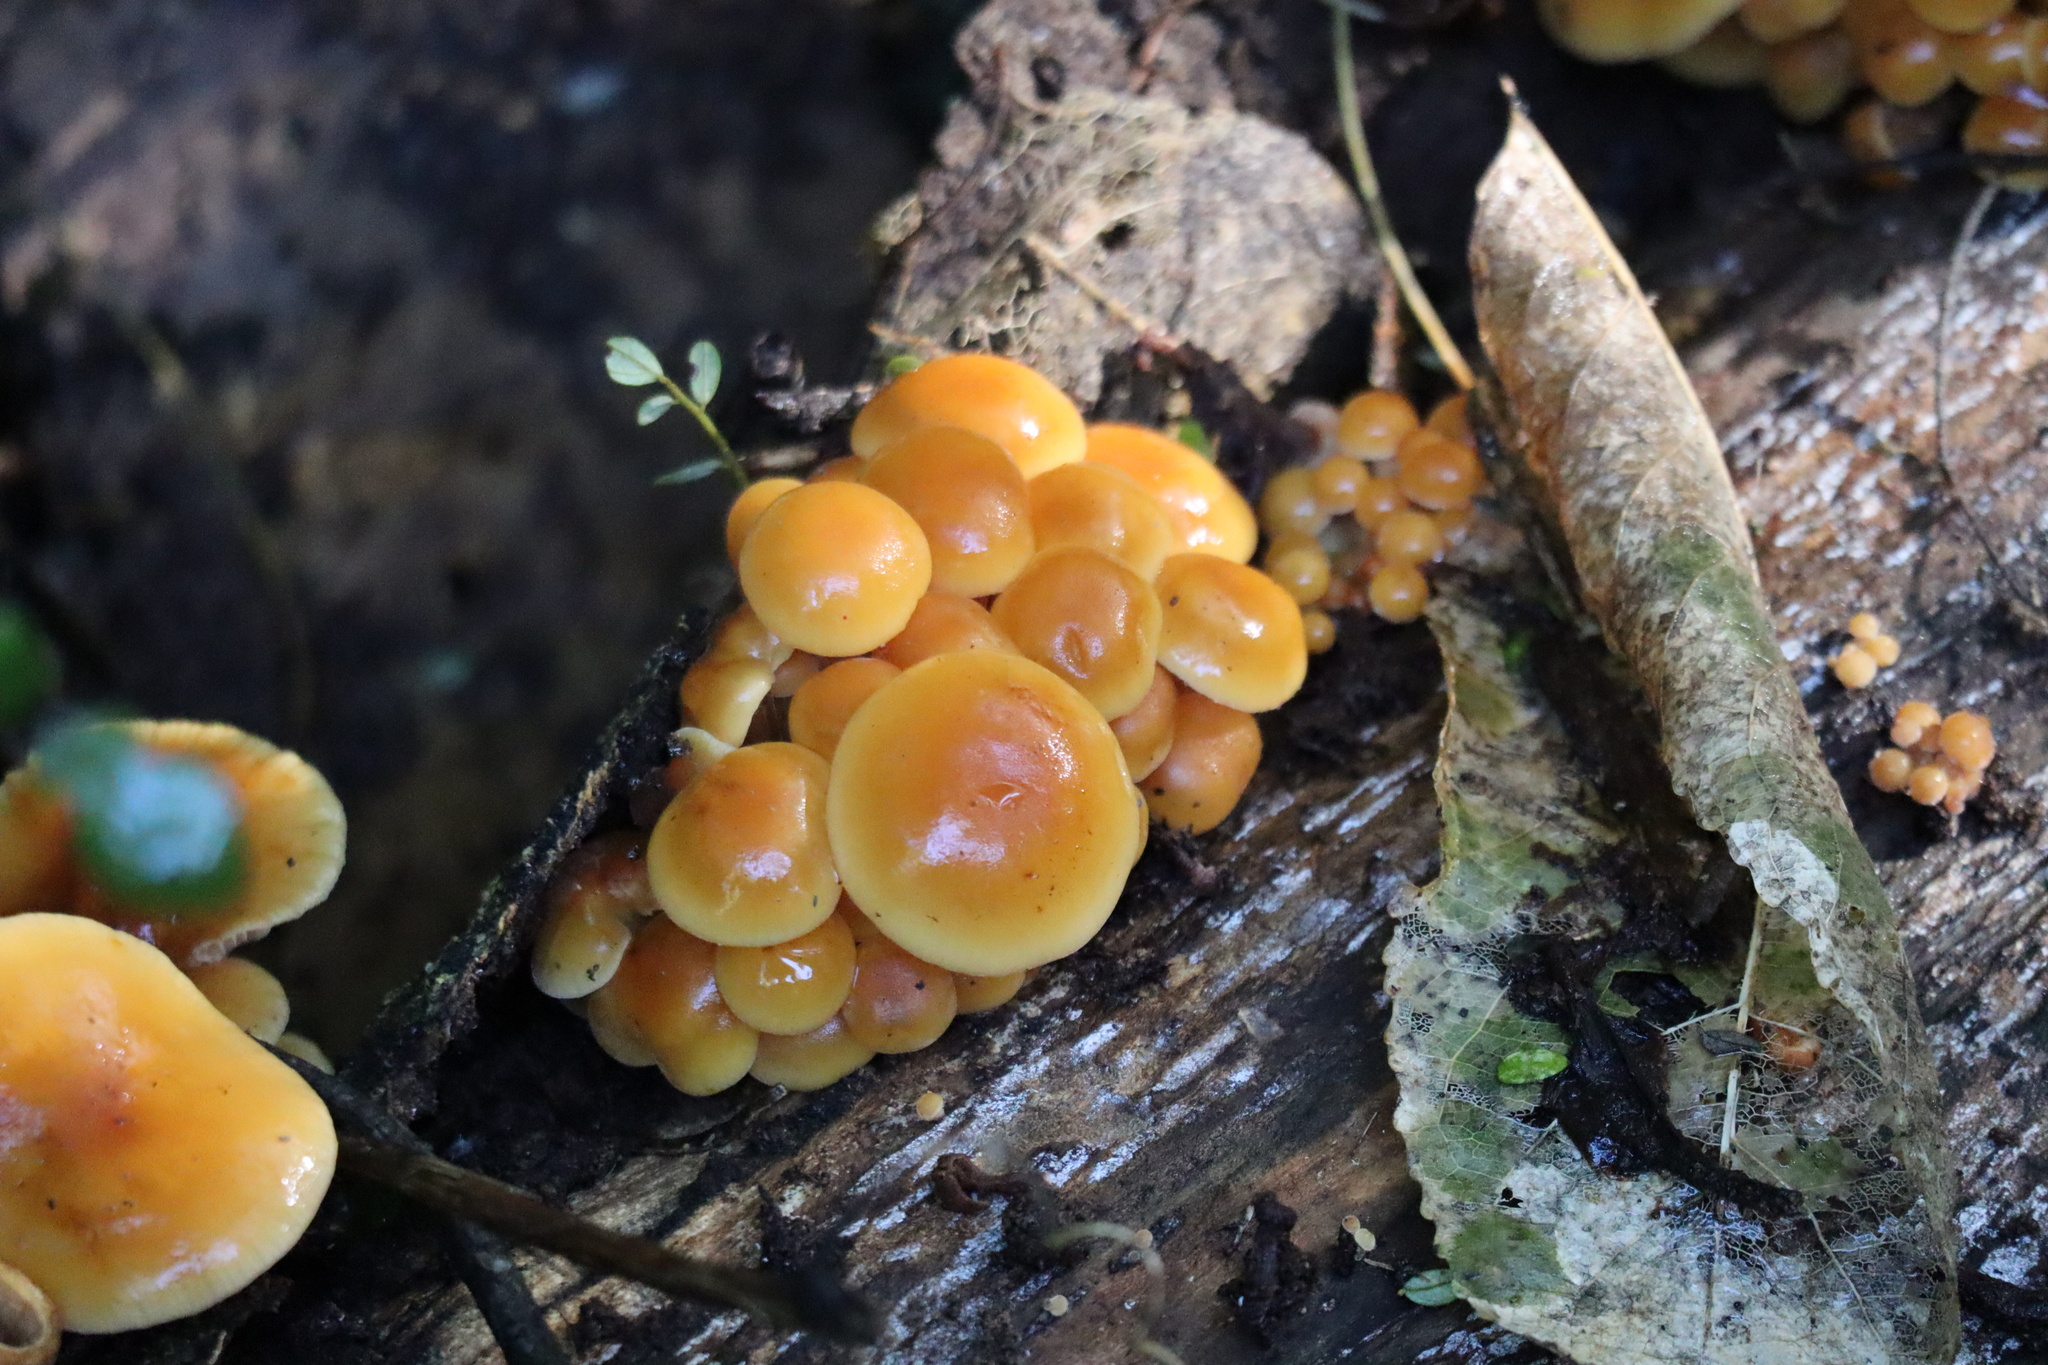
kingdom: Fungi
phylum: Basidiomycota
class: Agaricomycetes
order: Agaricales
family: Physalacriaceae
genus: Flammulina
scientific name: Flammulina velutipes
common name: Velvet shank
